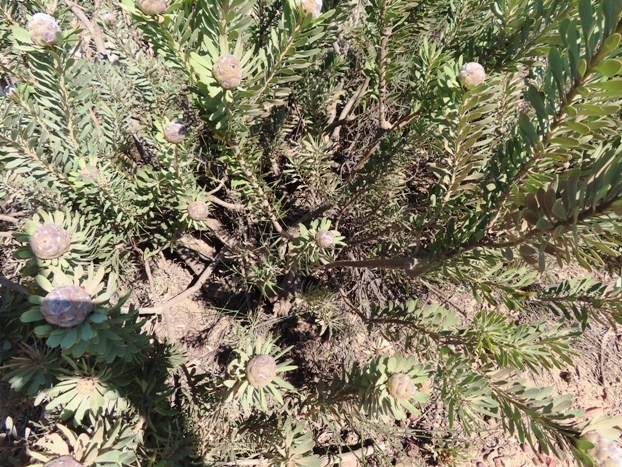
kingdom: Plantae
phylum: Tracheophyta
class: Magnoliopsida
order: Proteales
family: Proteaceae
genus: Leucadendron
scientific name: Leucadendron pubescens
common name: Grey conebush
